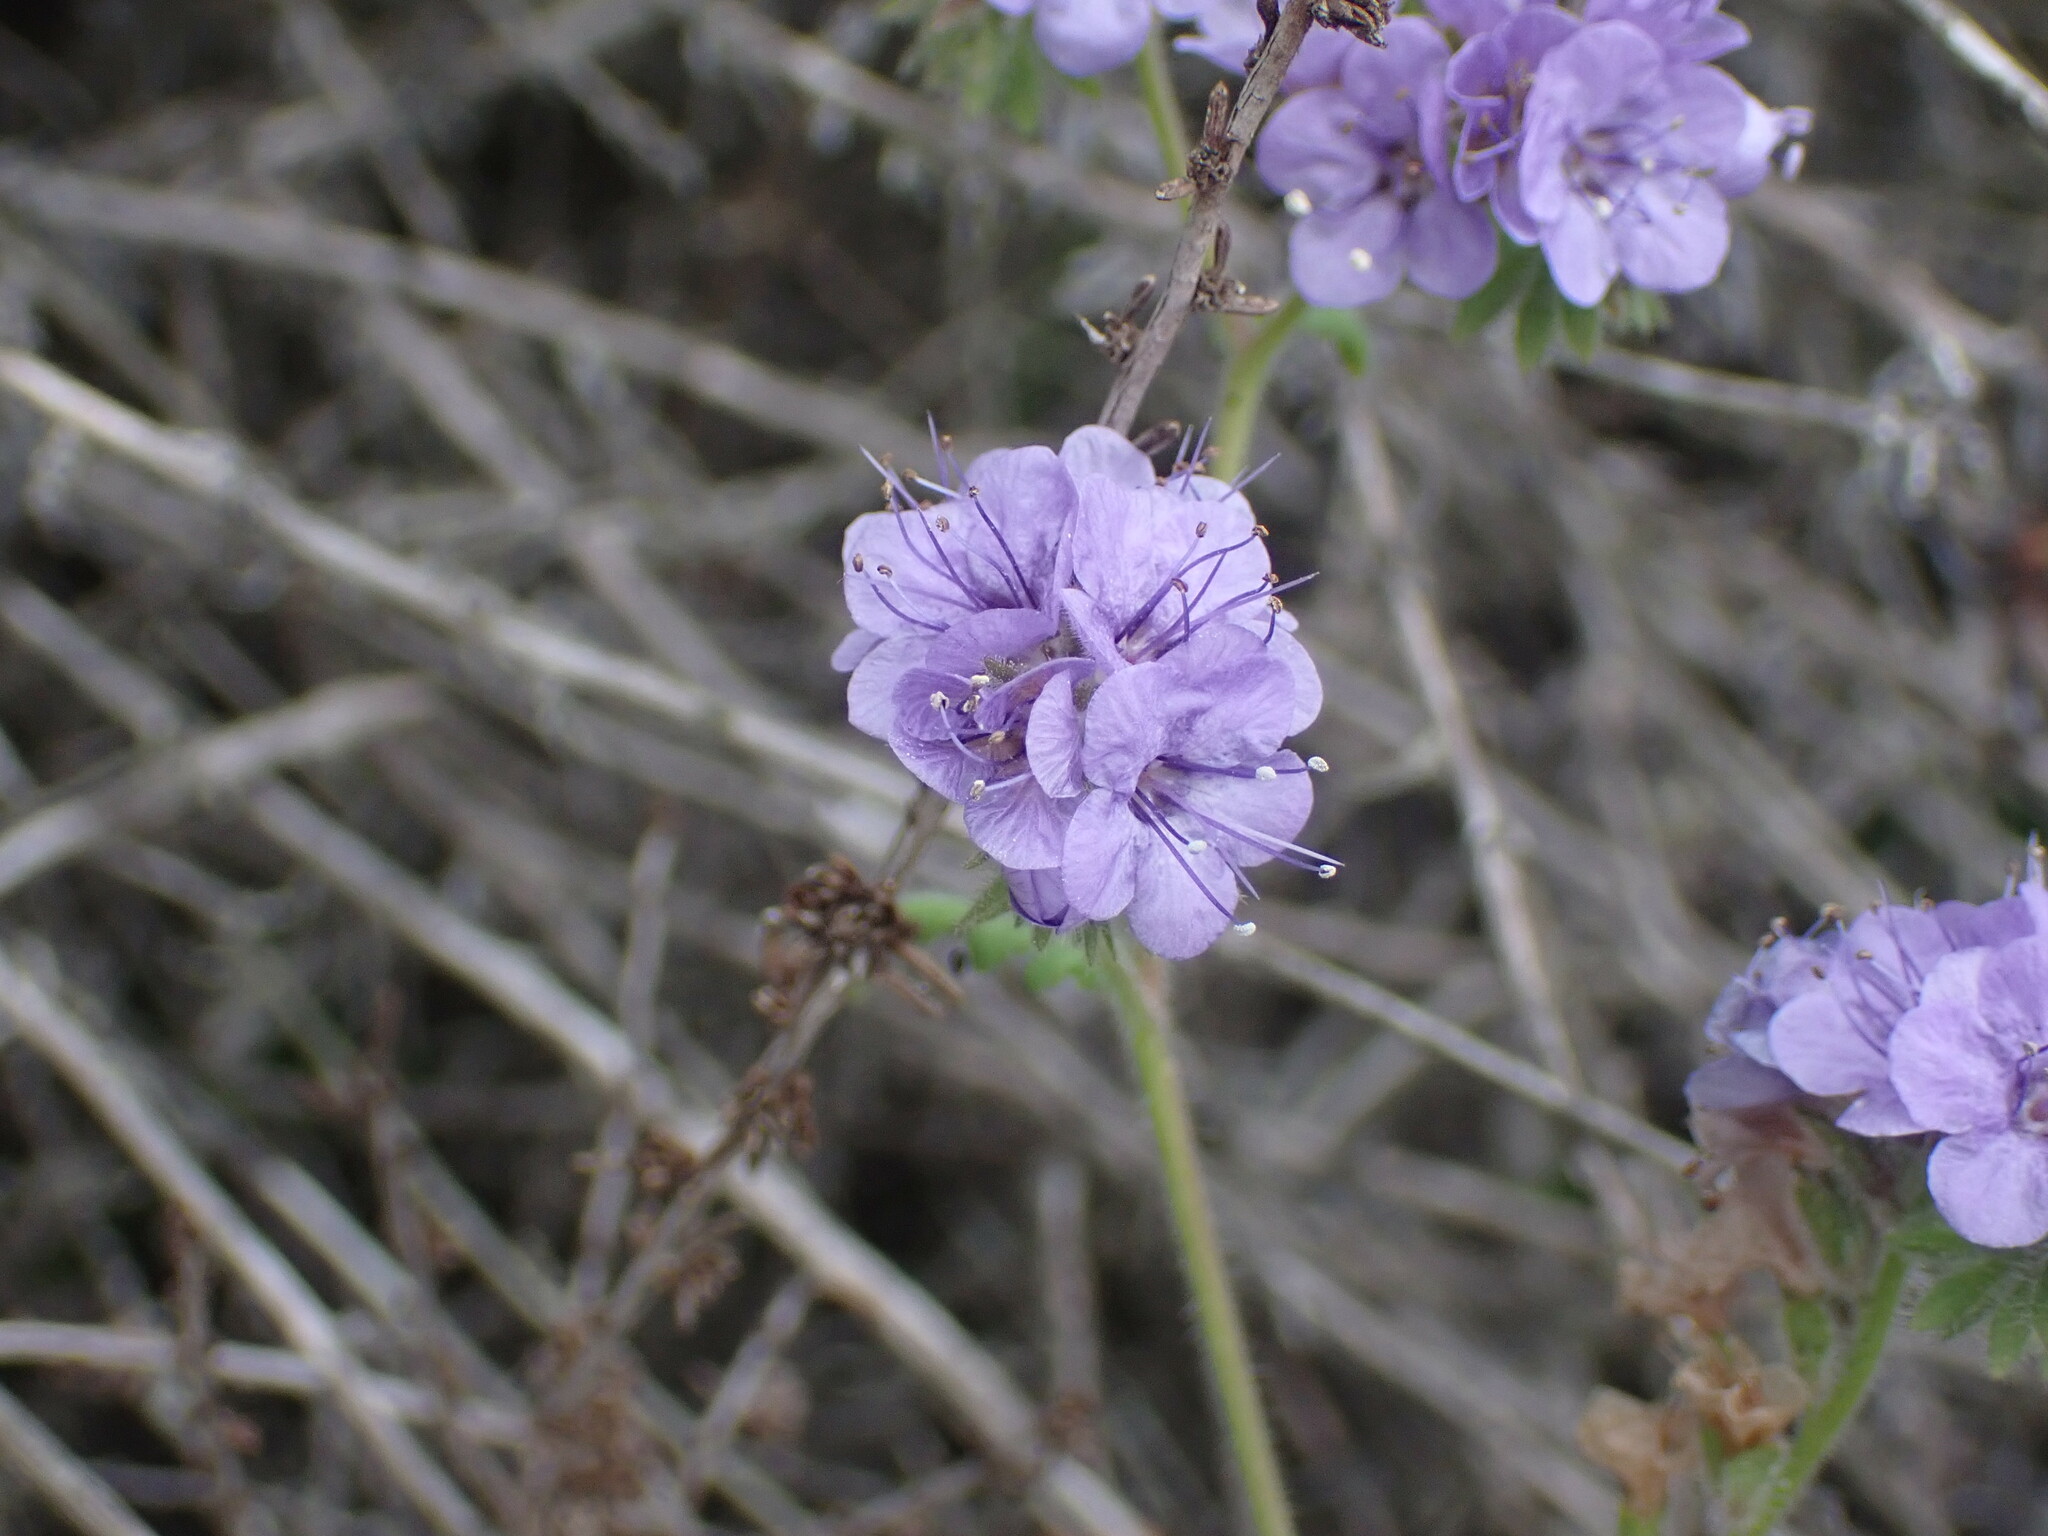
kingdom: Plantae
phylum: Tracheophyta
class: Magnoliopsida
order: Boraginales
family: Hydrophyllaceae
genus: Phacelia
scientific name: Phacelia distans
